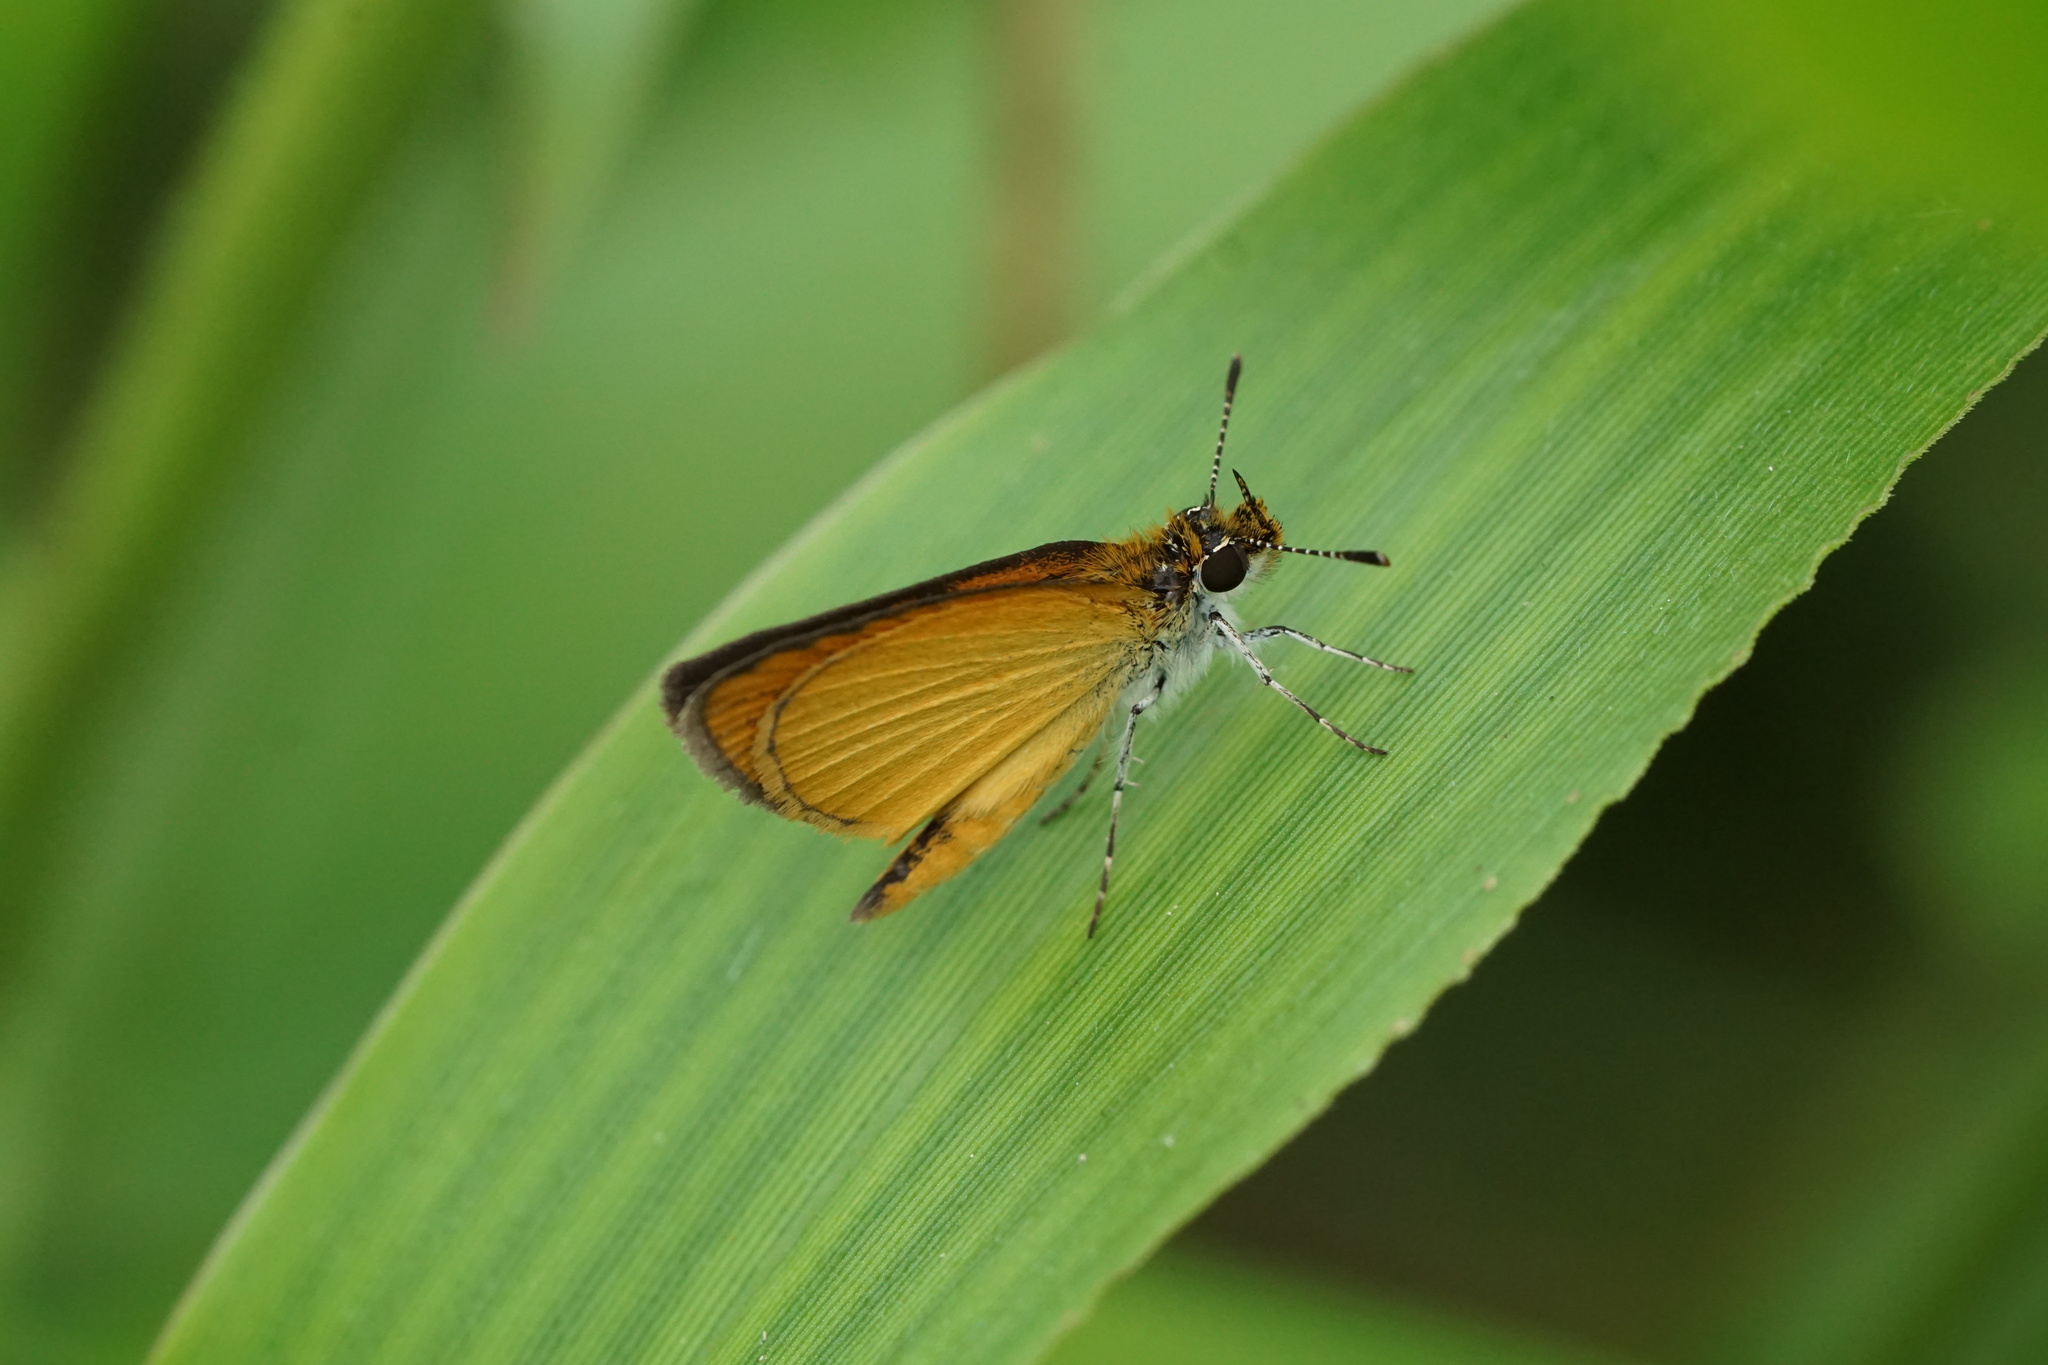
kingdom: Animalia
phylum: Arthropoda
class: Insecta
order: Lepidoptera
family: Hesperiidae
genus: Ancyloxypha
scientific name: Ancyloxypha numitor
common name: Least skipper
